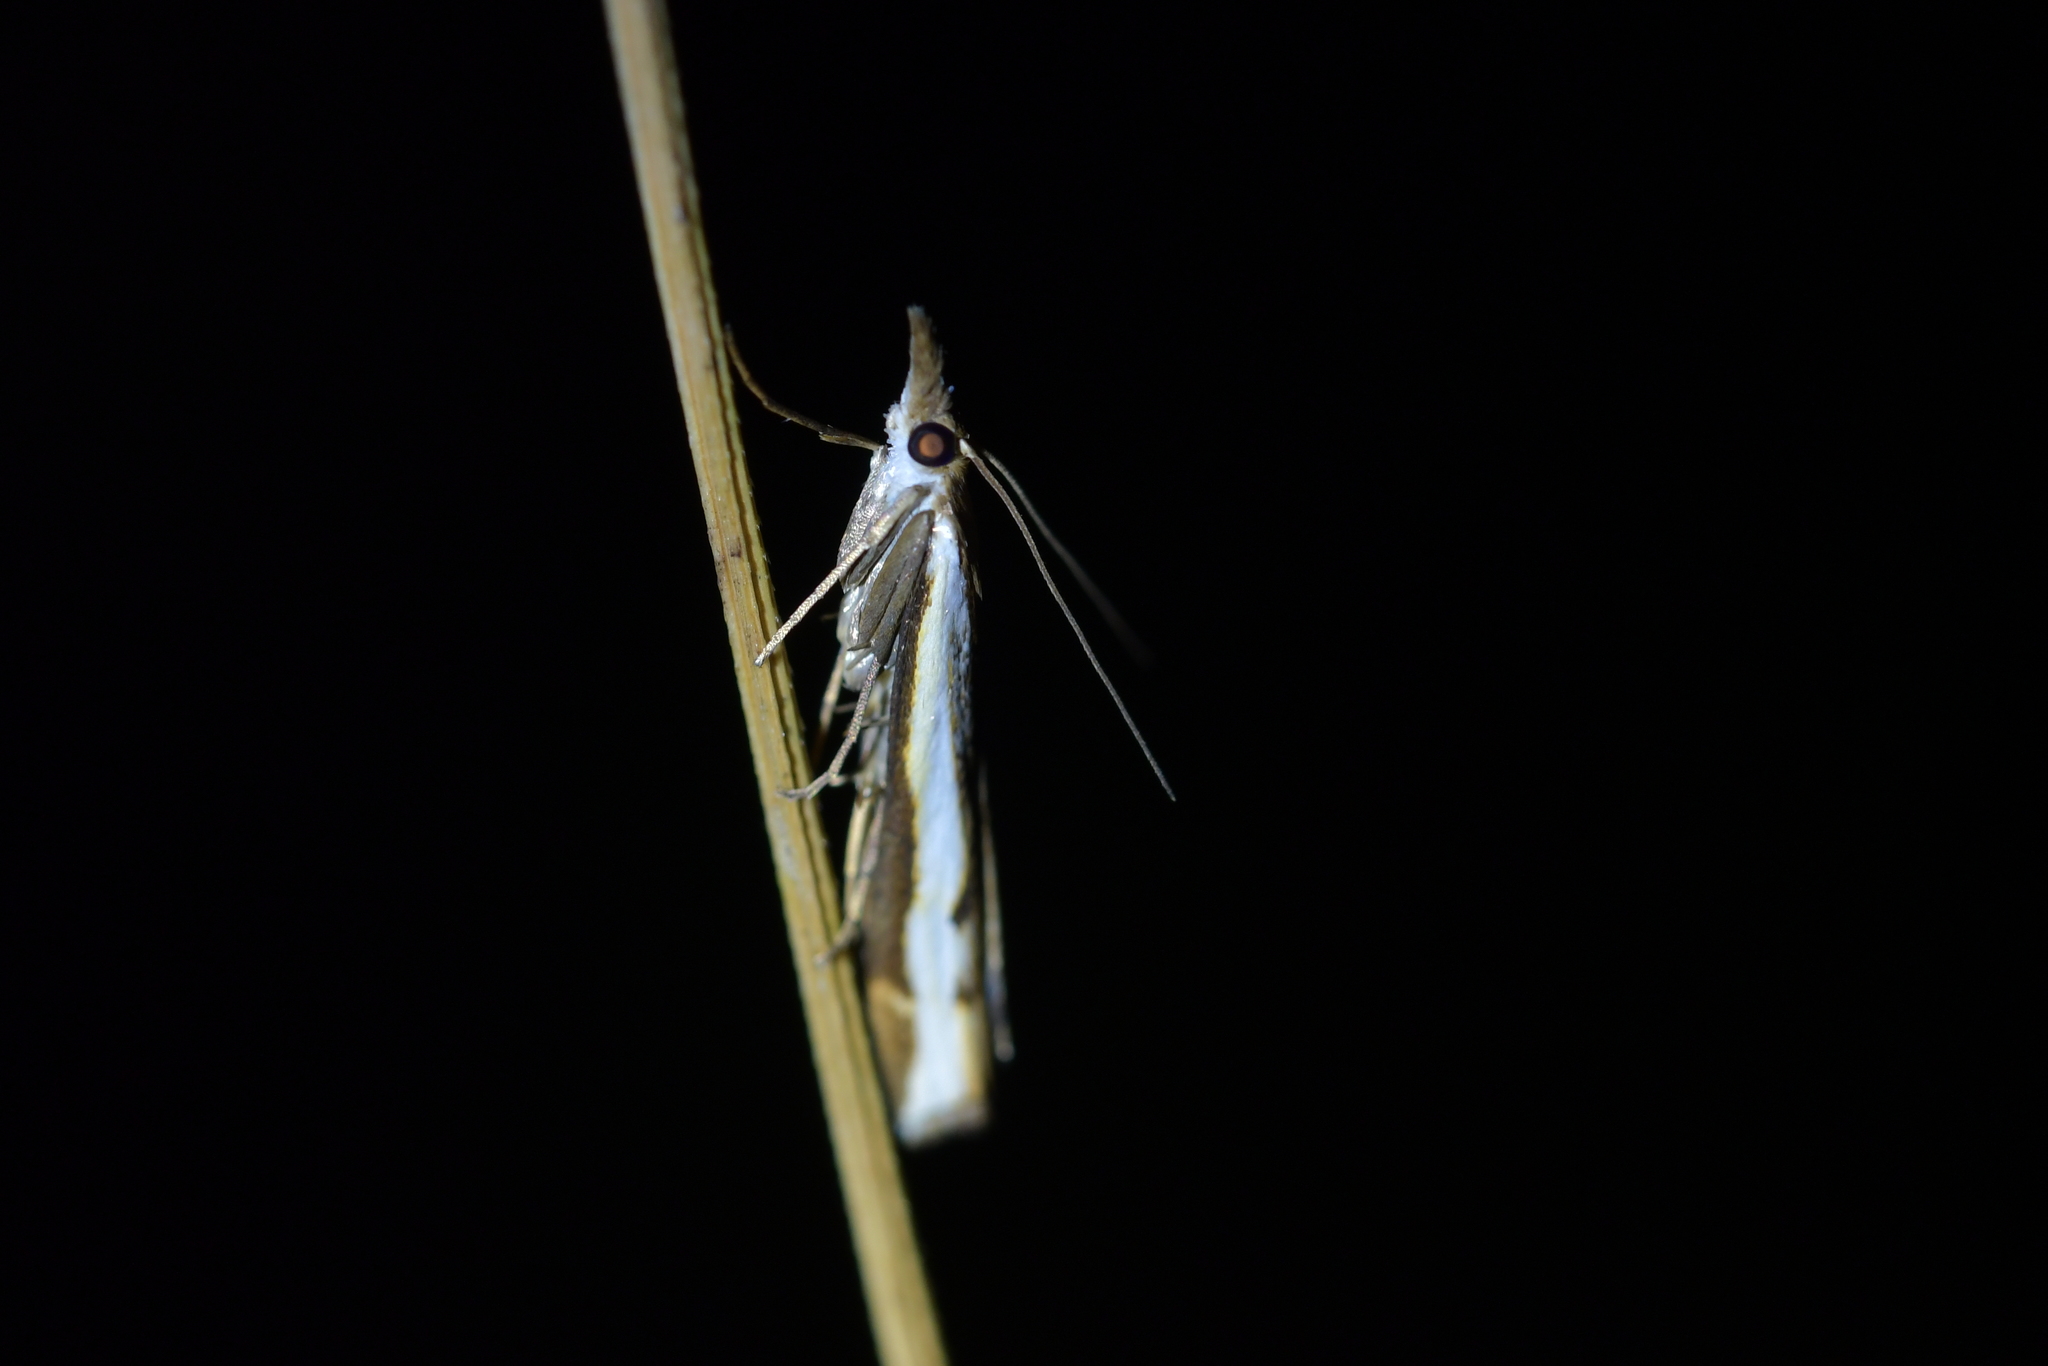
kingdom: Animalia
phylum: Arthropoda
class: Insecta
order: Lepidoptera
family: Crambidae
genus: Orocrambus
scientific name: Orocrambus flexuosellus
